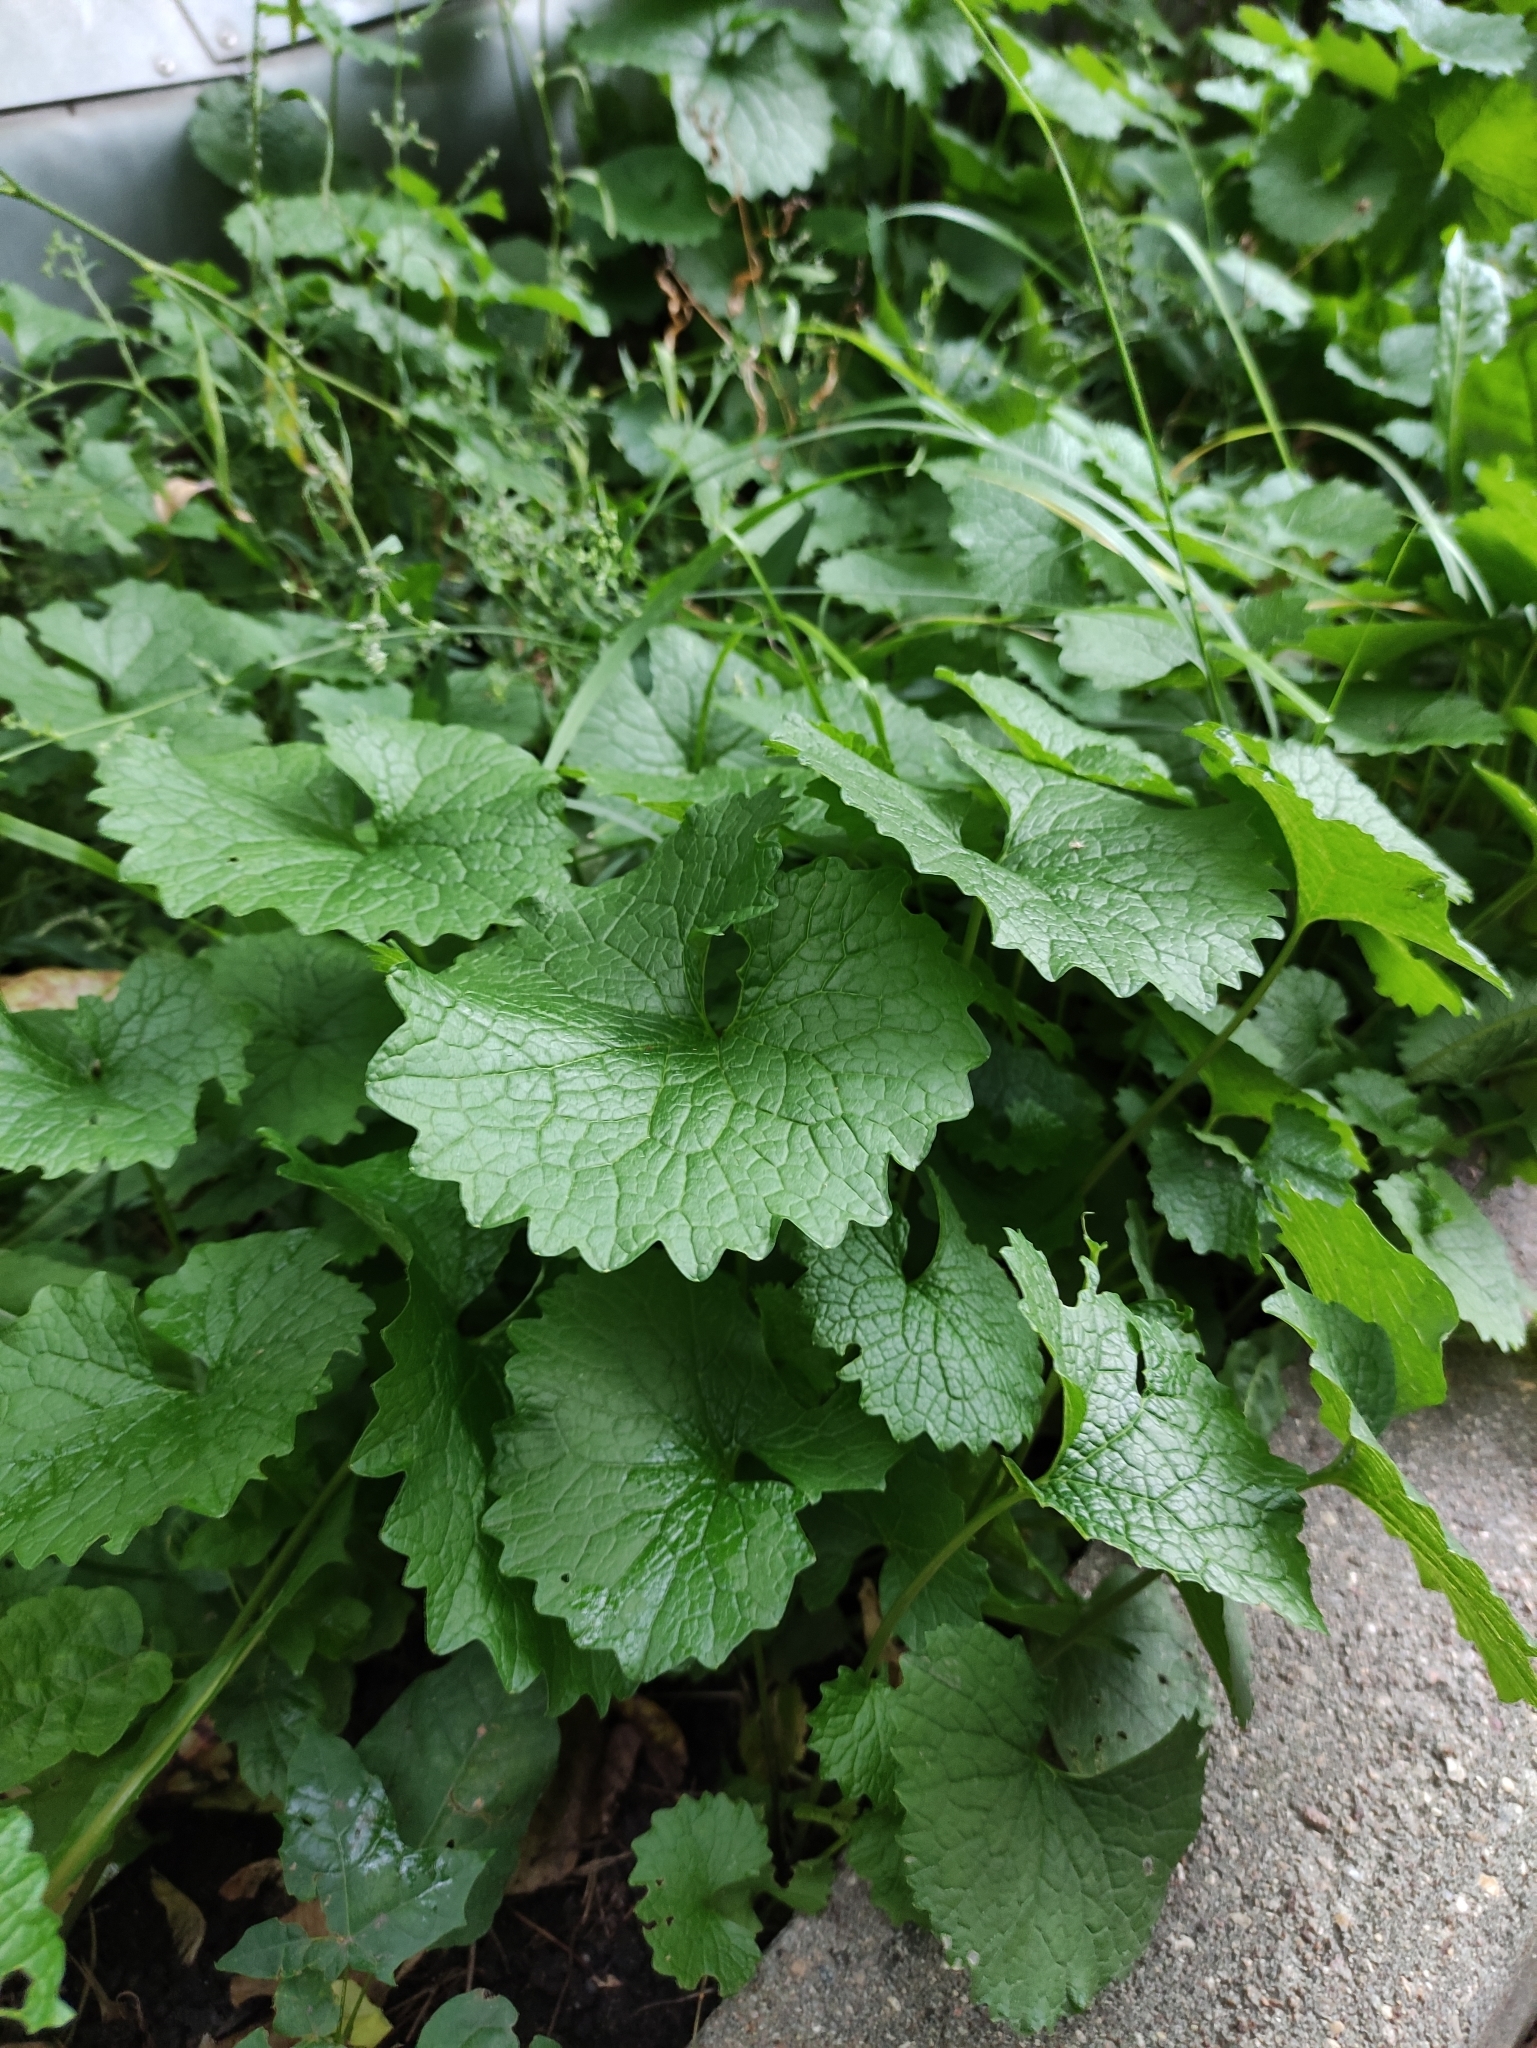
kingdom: Plantae
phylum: Tracheophyta
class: Magnoliopsida
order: Lamiales
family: Lamiaceae
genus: Glechoma
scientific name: Glechoma hederacea
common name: Ground ivy
